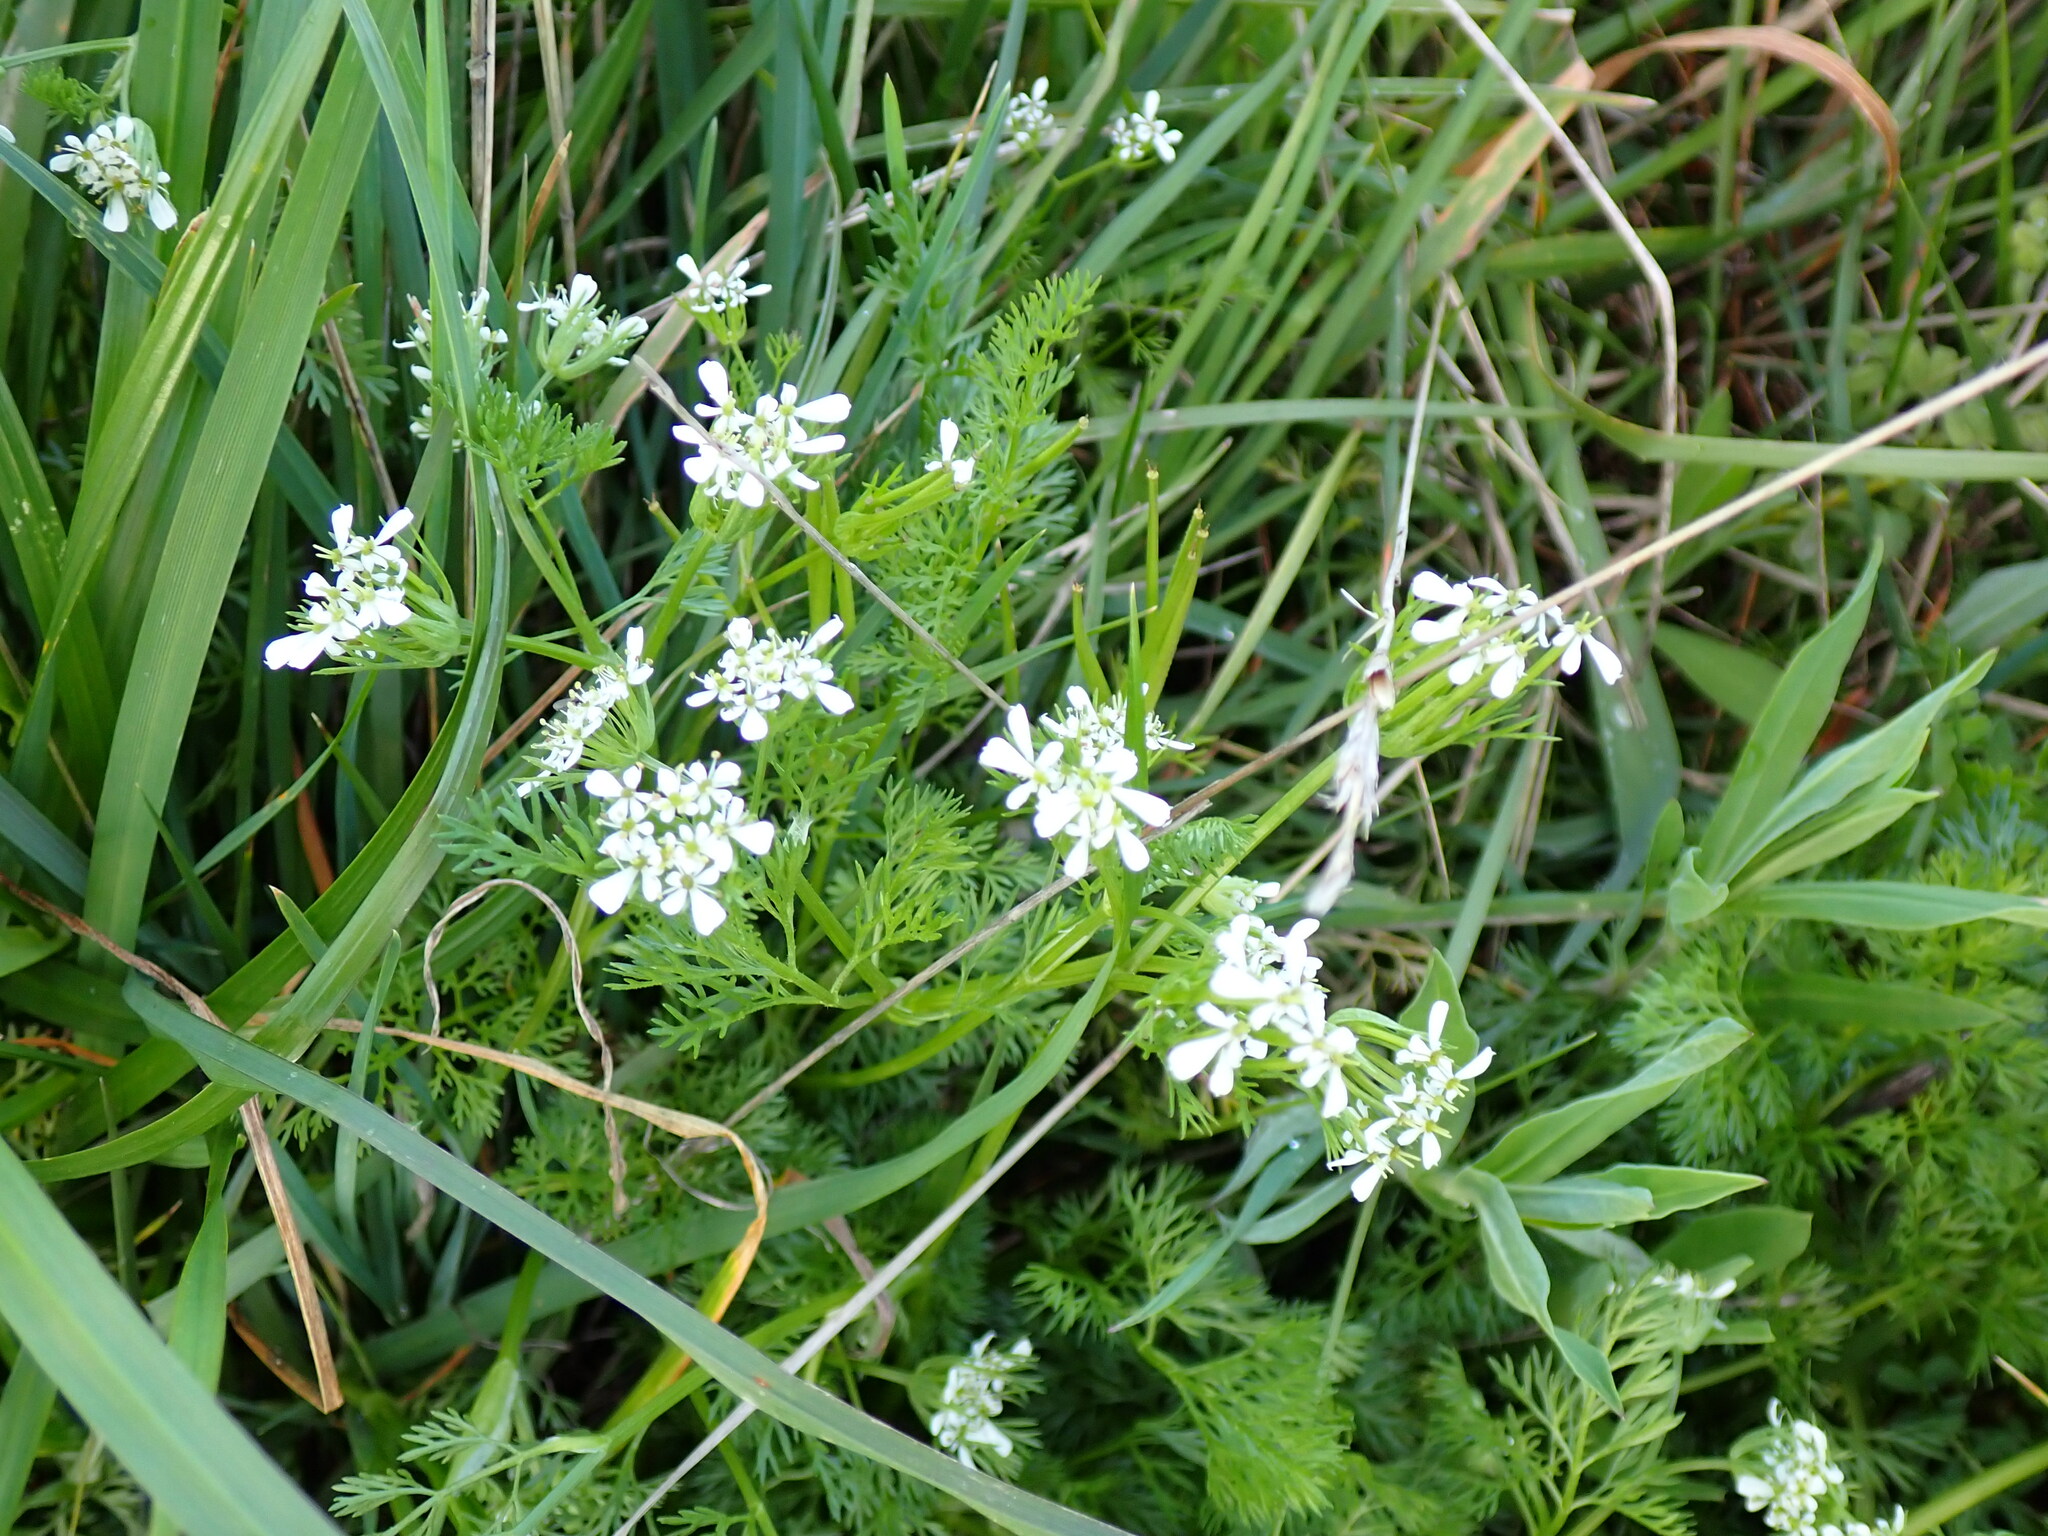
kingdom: Plantae
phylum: Tracheophyta
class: Magnoliopsida
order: Apiales
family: Apiaceae
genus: Scandix
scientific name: Scandix pecten-veneris
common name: Shepherd's-needle
